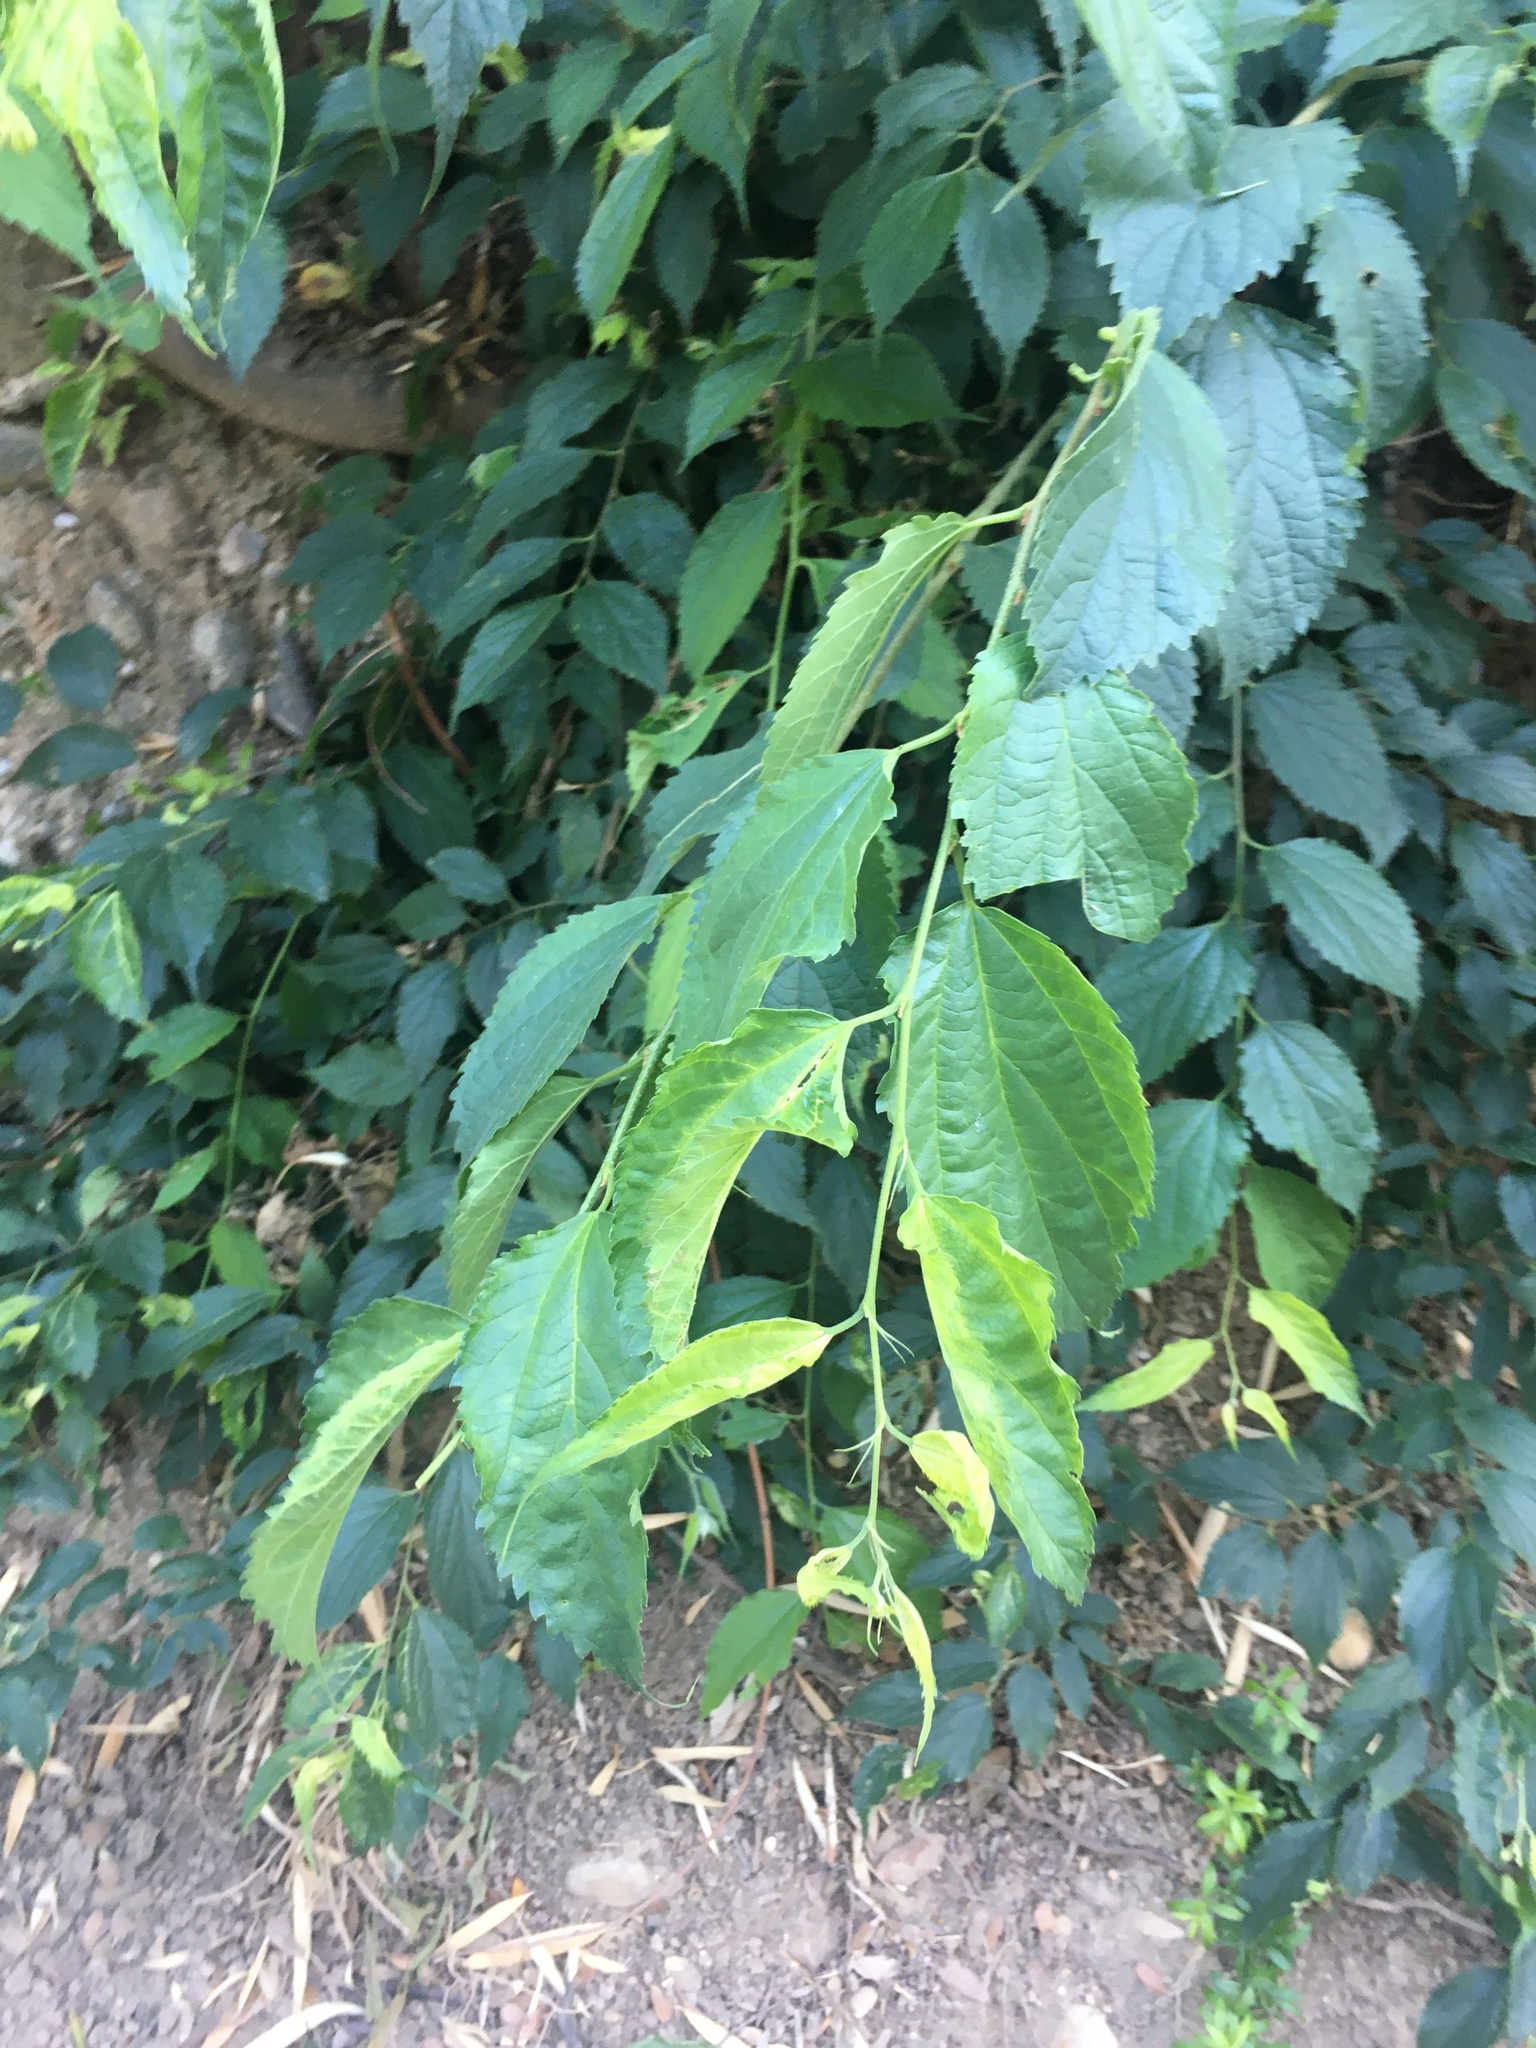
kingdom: Plantae
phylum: Tracheophyta
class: Magnoliopsida
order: Rosales
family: Cannabaceae
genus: Celtis
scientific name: Celtis australis
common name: European hackberry
